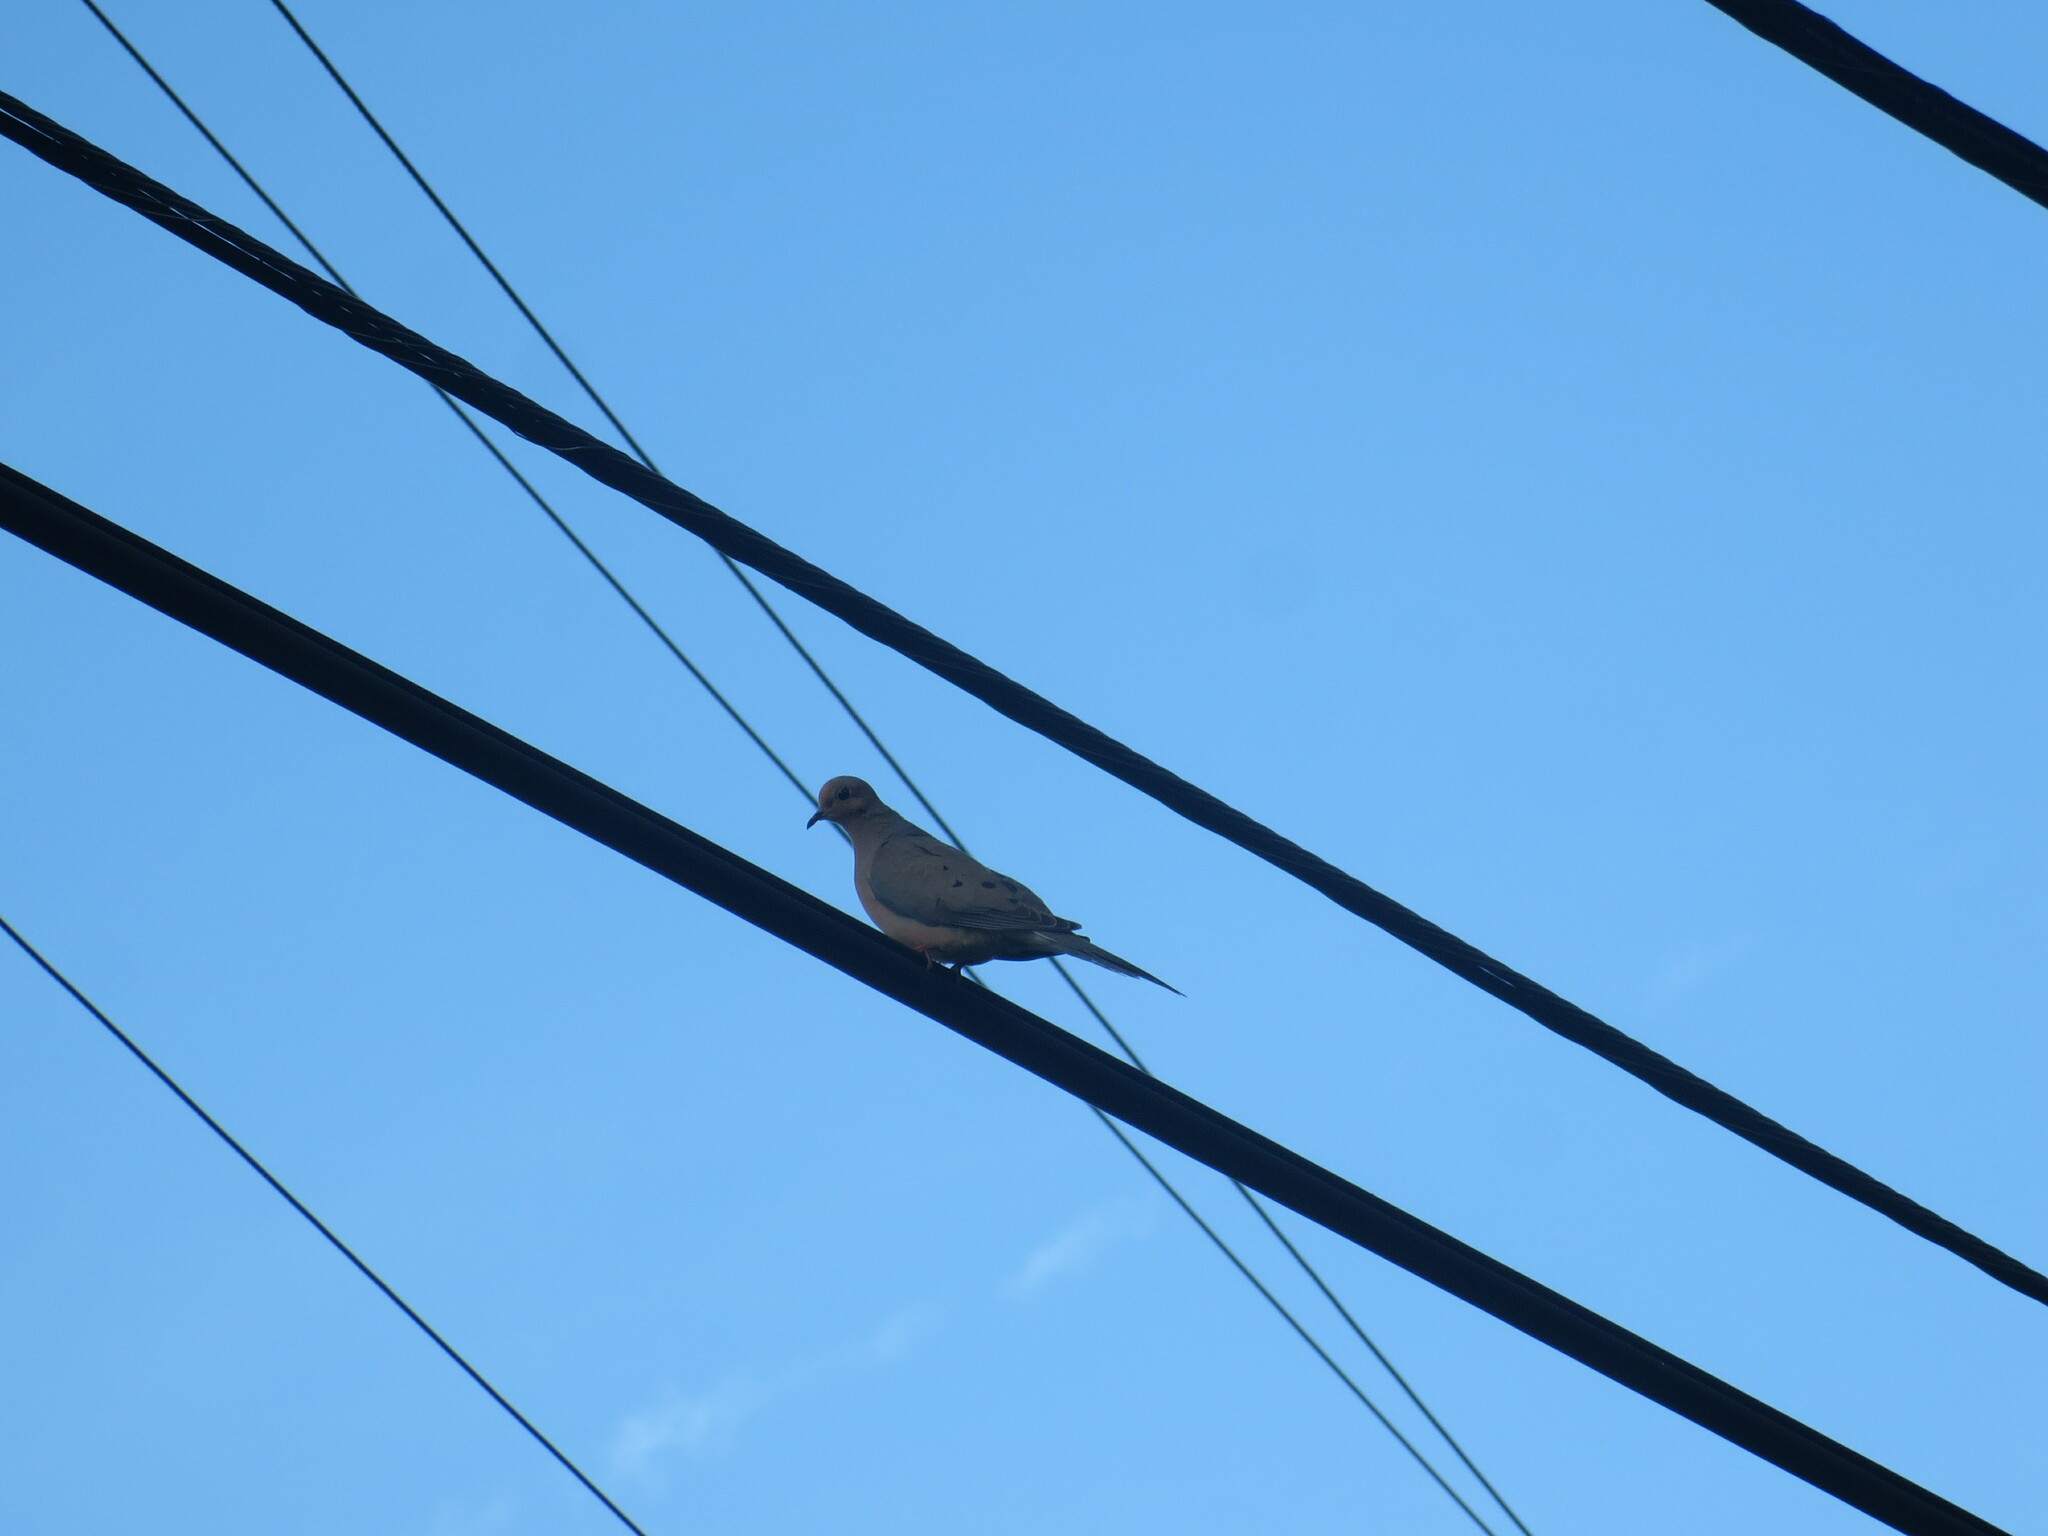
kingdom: Animalia
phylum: Chordata
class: Aves
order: Columbiformes
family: Columbidae
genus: Zenaida
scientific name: Zenaida macroura
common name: Mourning dove
